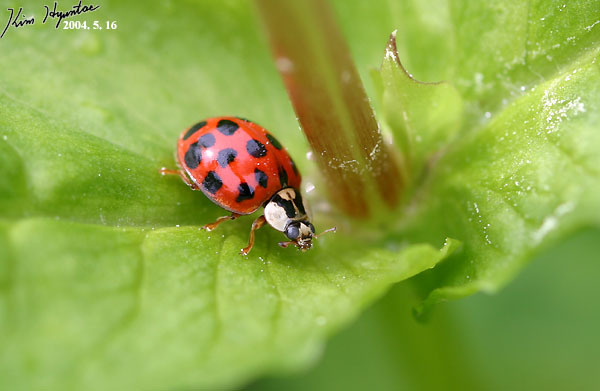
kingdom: Animalia
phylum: Arthropoda
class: Insecta
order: Coleoptera
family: Coccinellidae
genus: Harmonia
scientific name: Harmonia axyridis
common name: Harlequin ladybird
